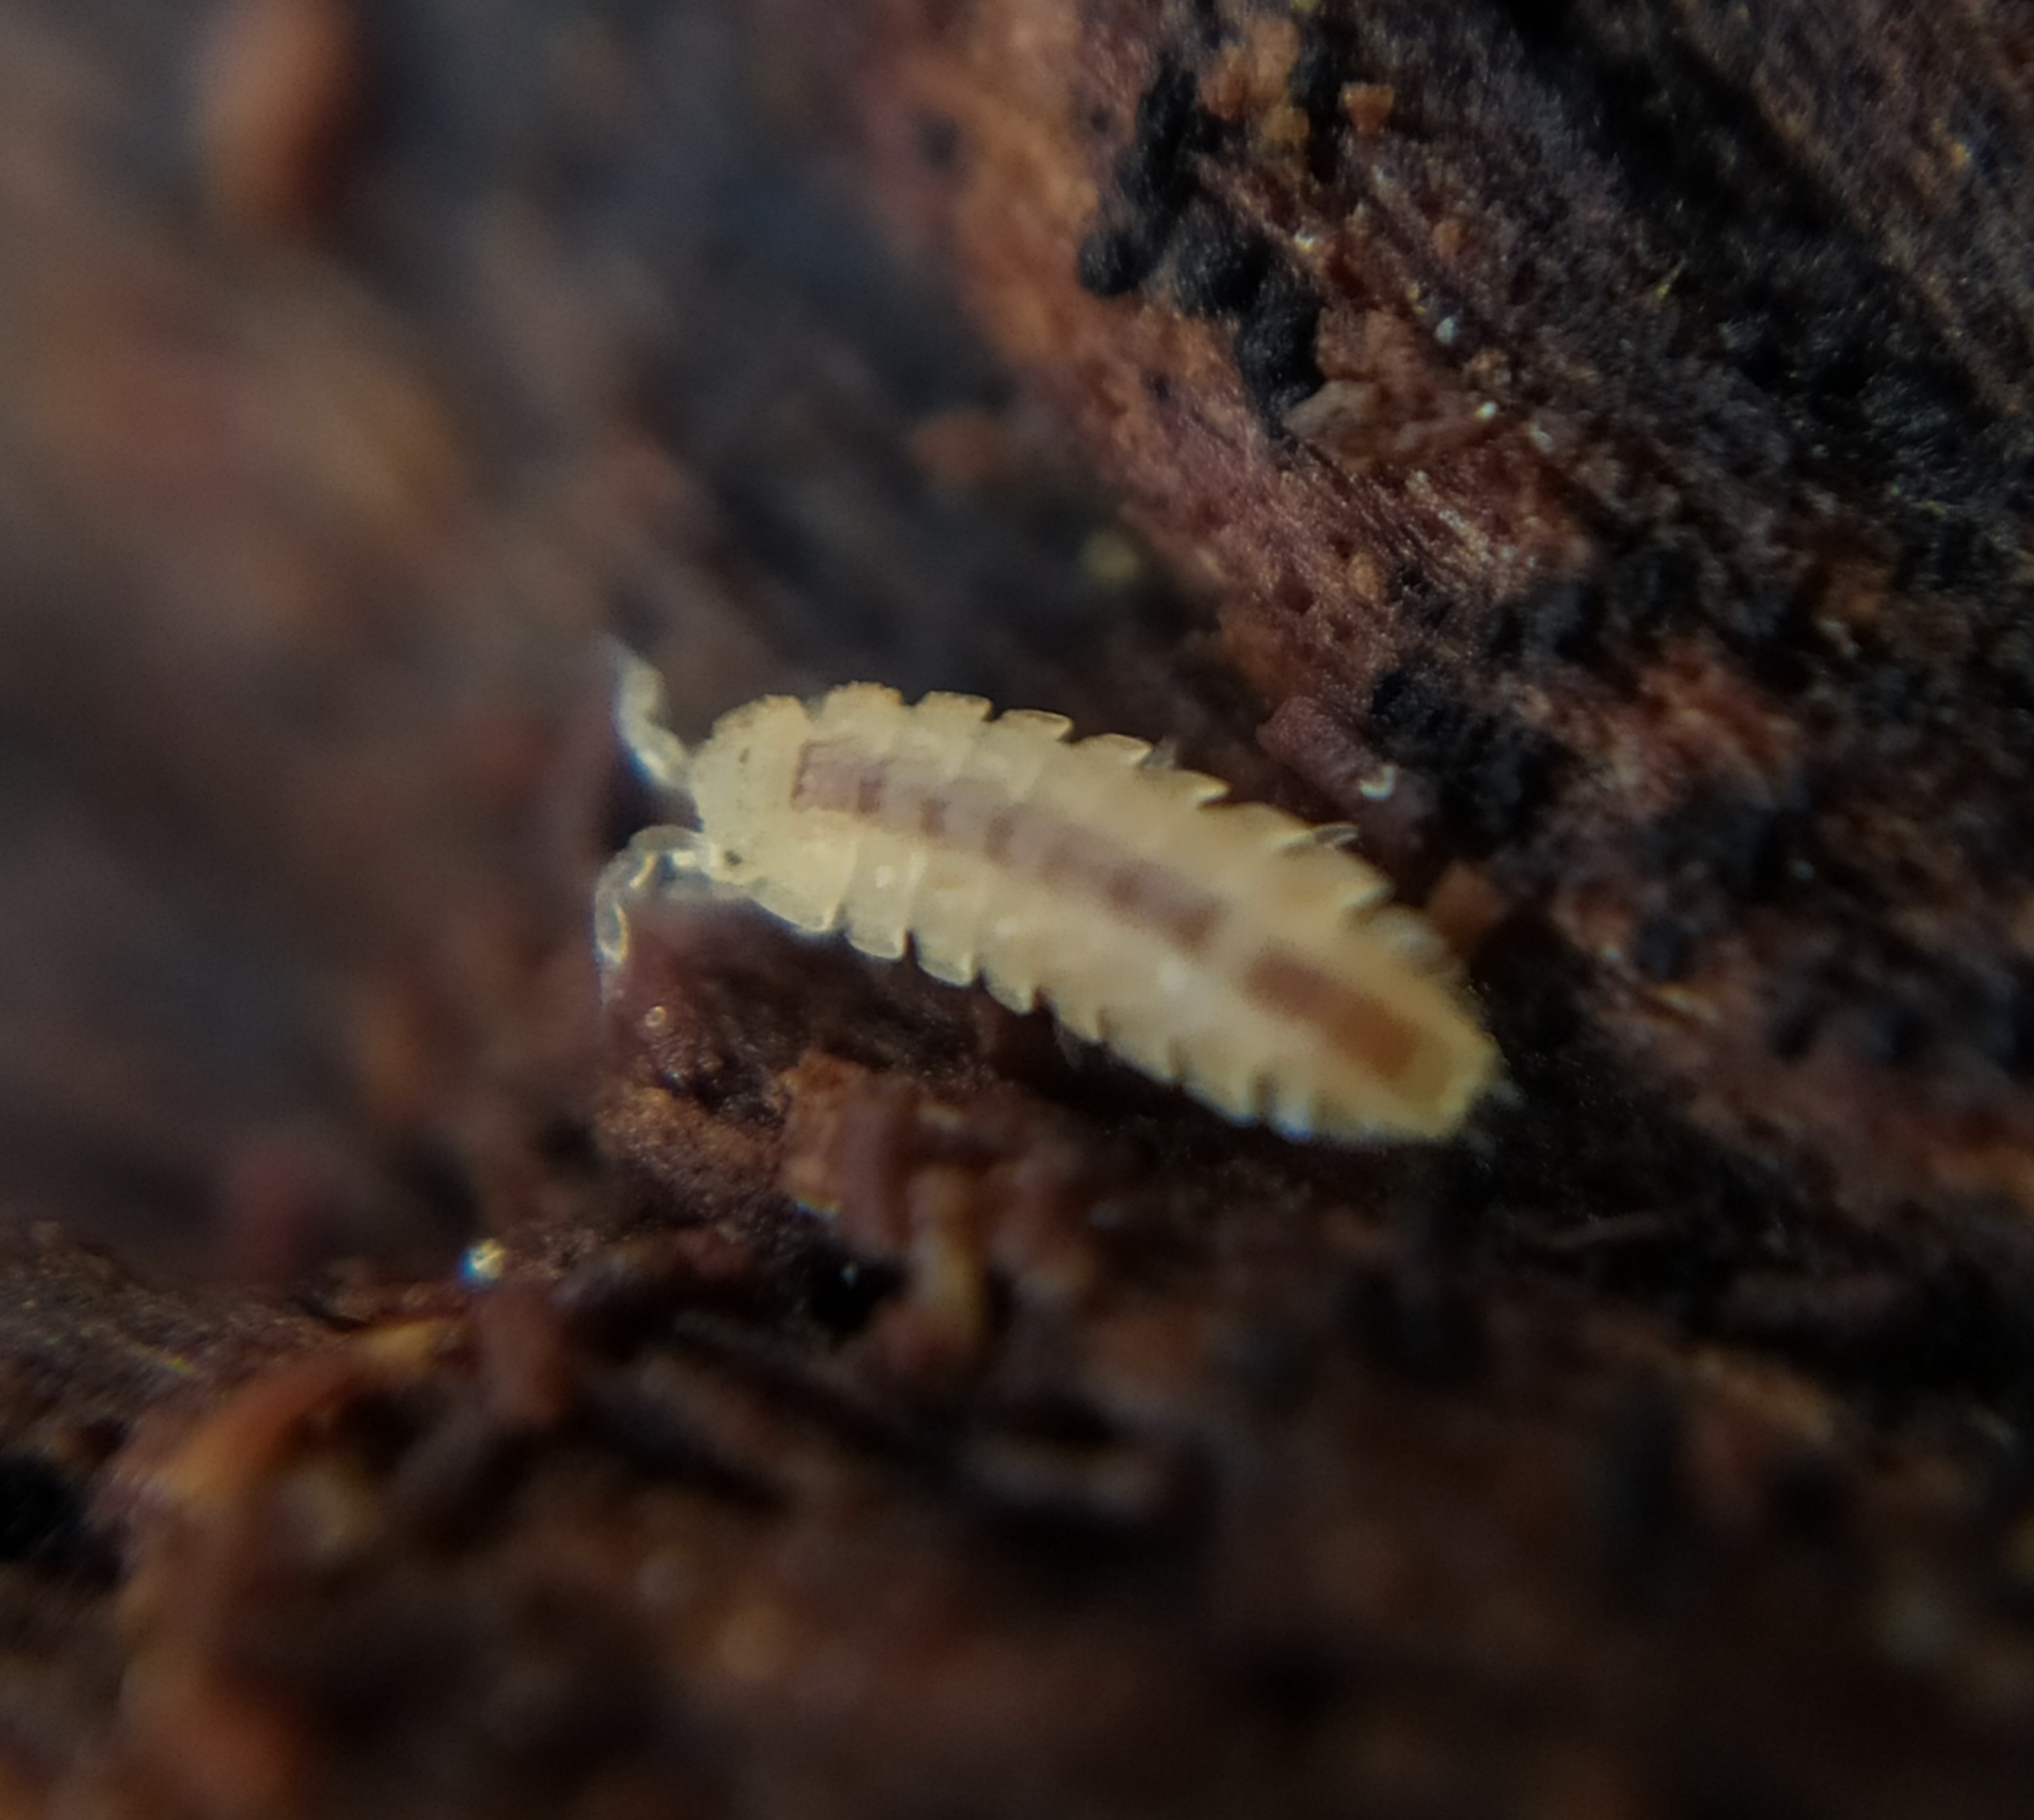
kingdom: Animalia
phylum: Arthropoda
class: Malacostraca
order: Isopoda
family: Trichoniscidae
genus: Haplophthalmus
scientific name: Haplophthalmus danicus
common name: Pillbug
